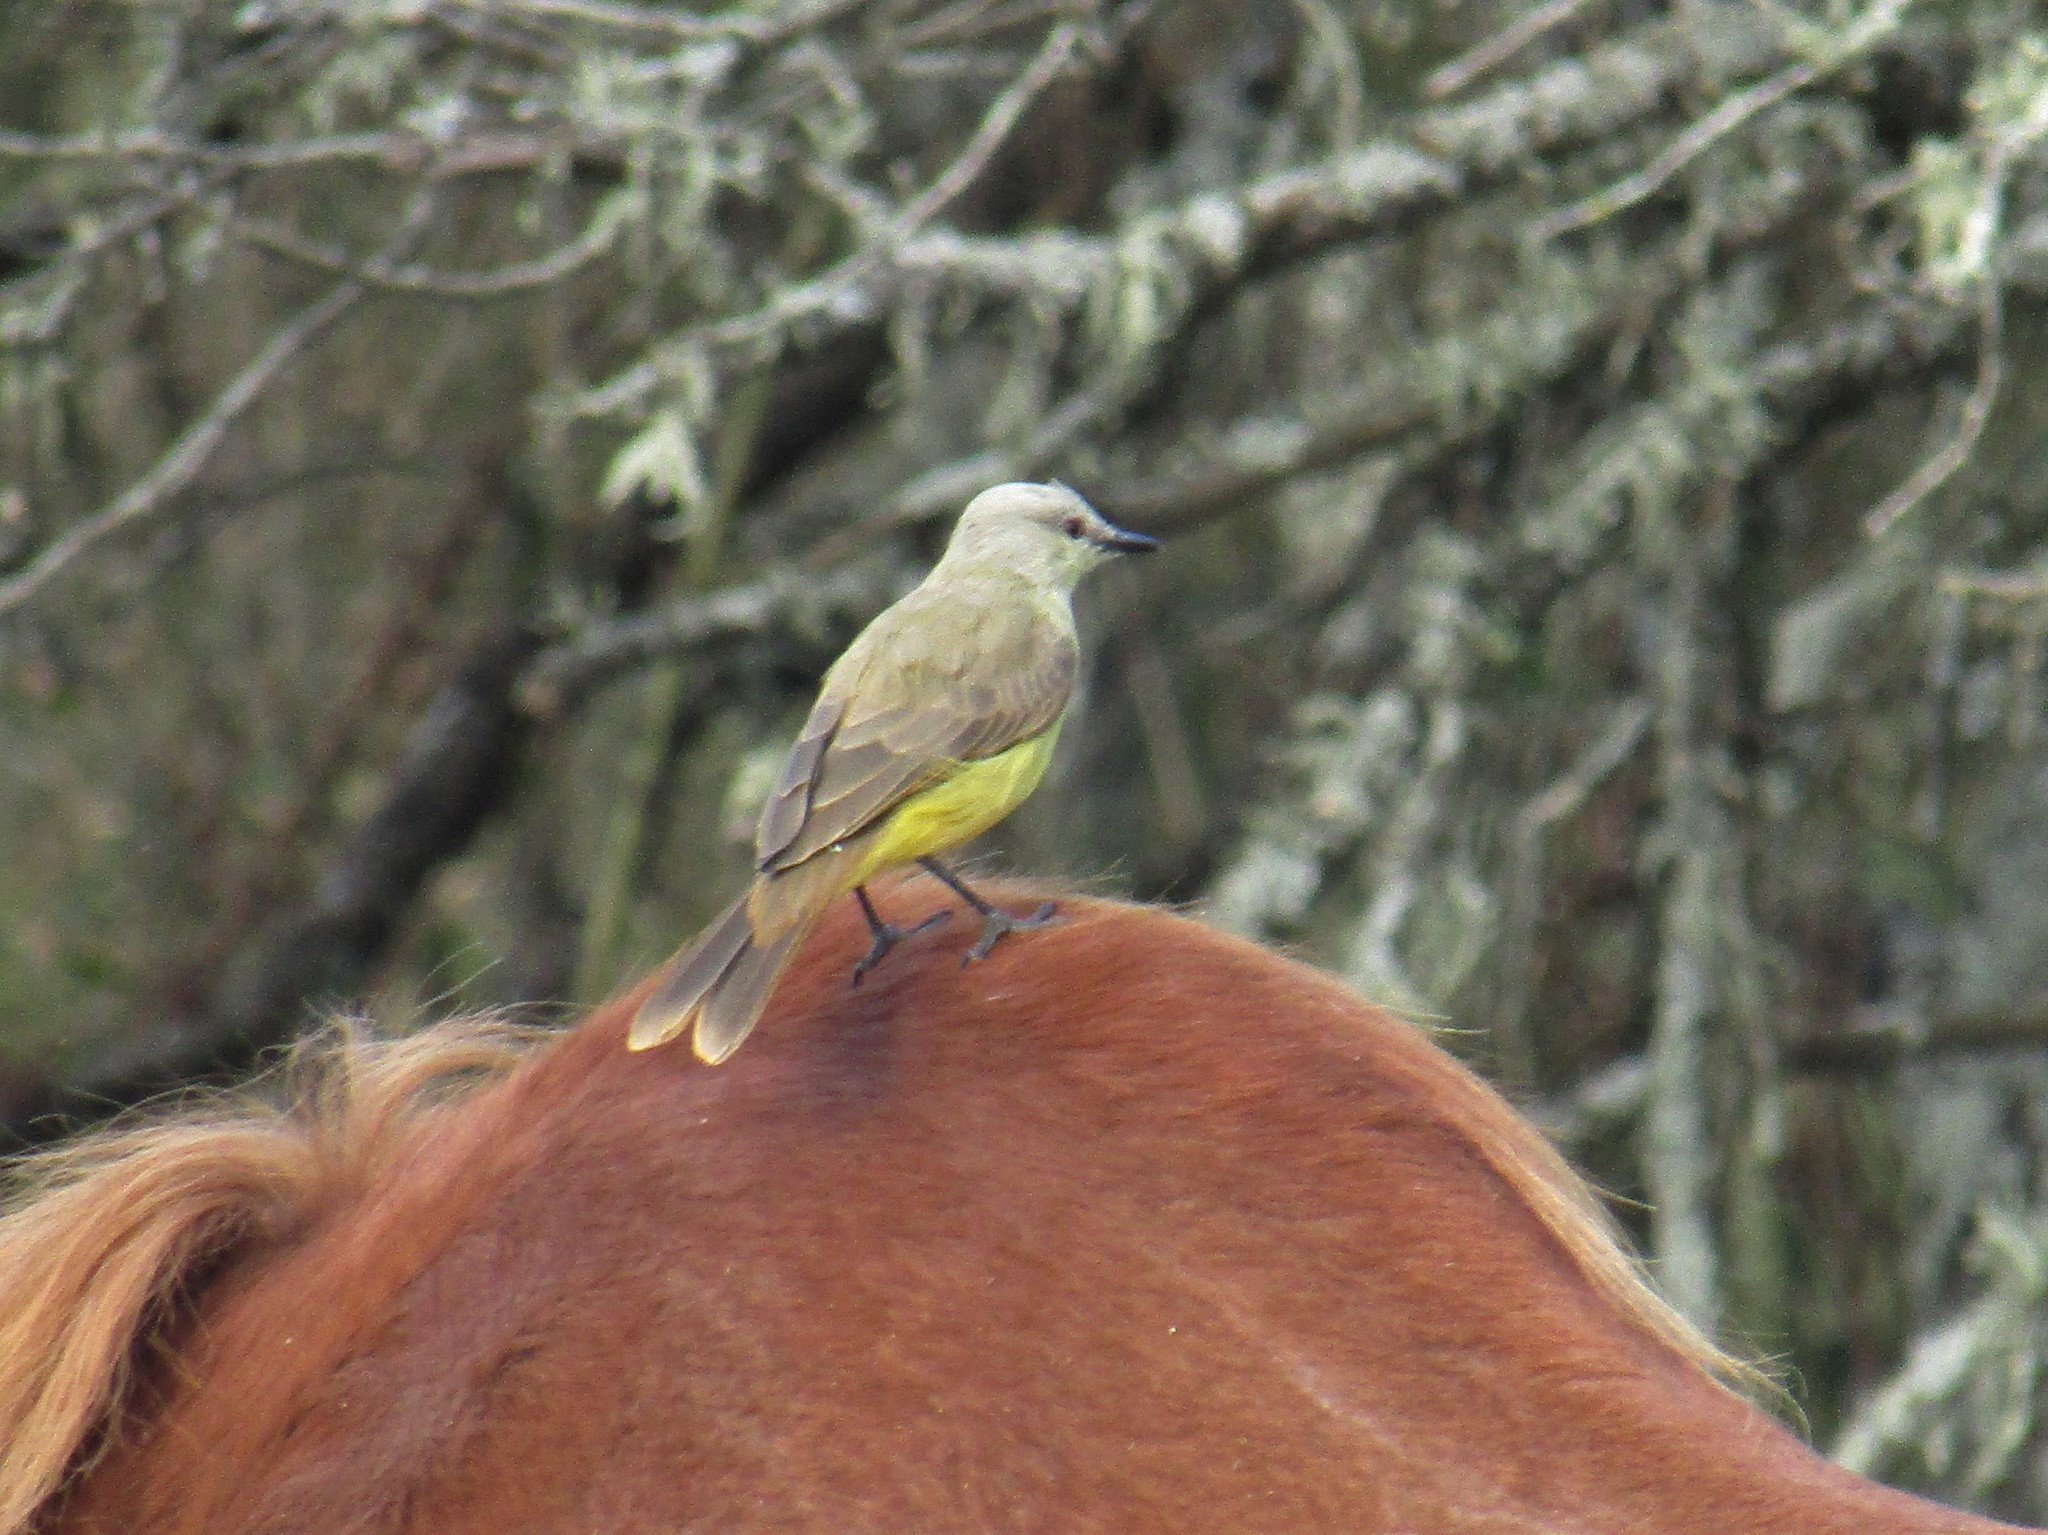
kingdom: Animalia
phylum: Chordata
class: Aves
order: Passeriformes
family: Tyrannidae
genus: Machetornis
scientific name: Machetornis rixosa
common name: Cattle tyrant
